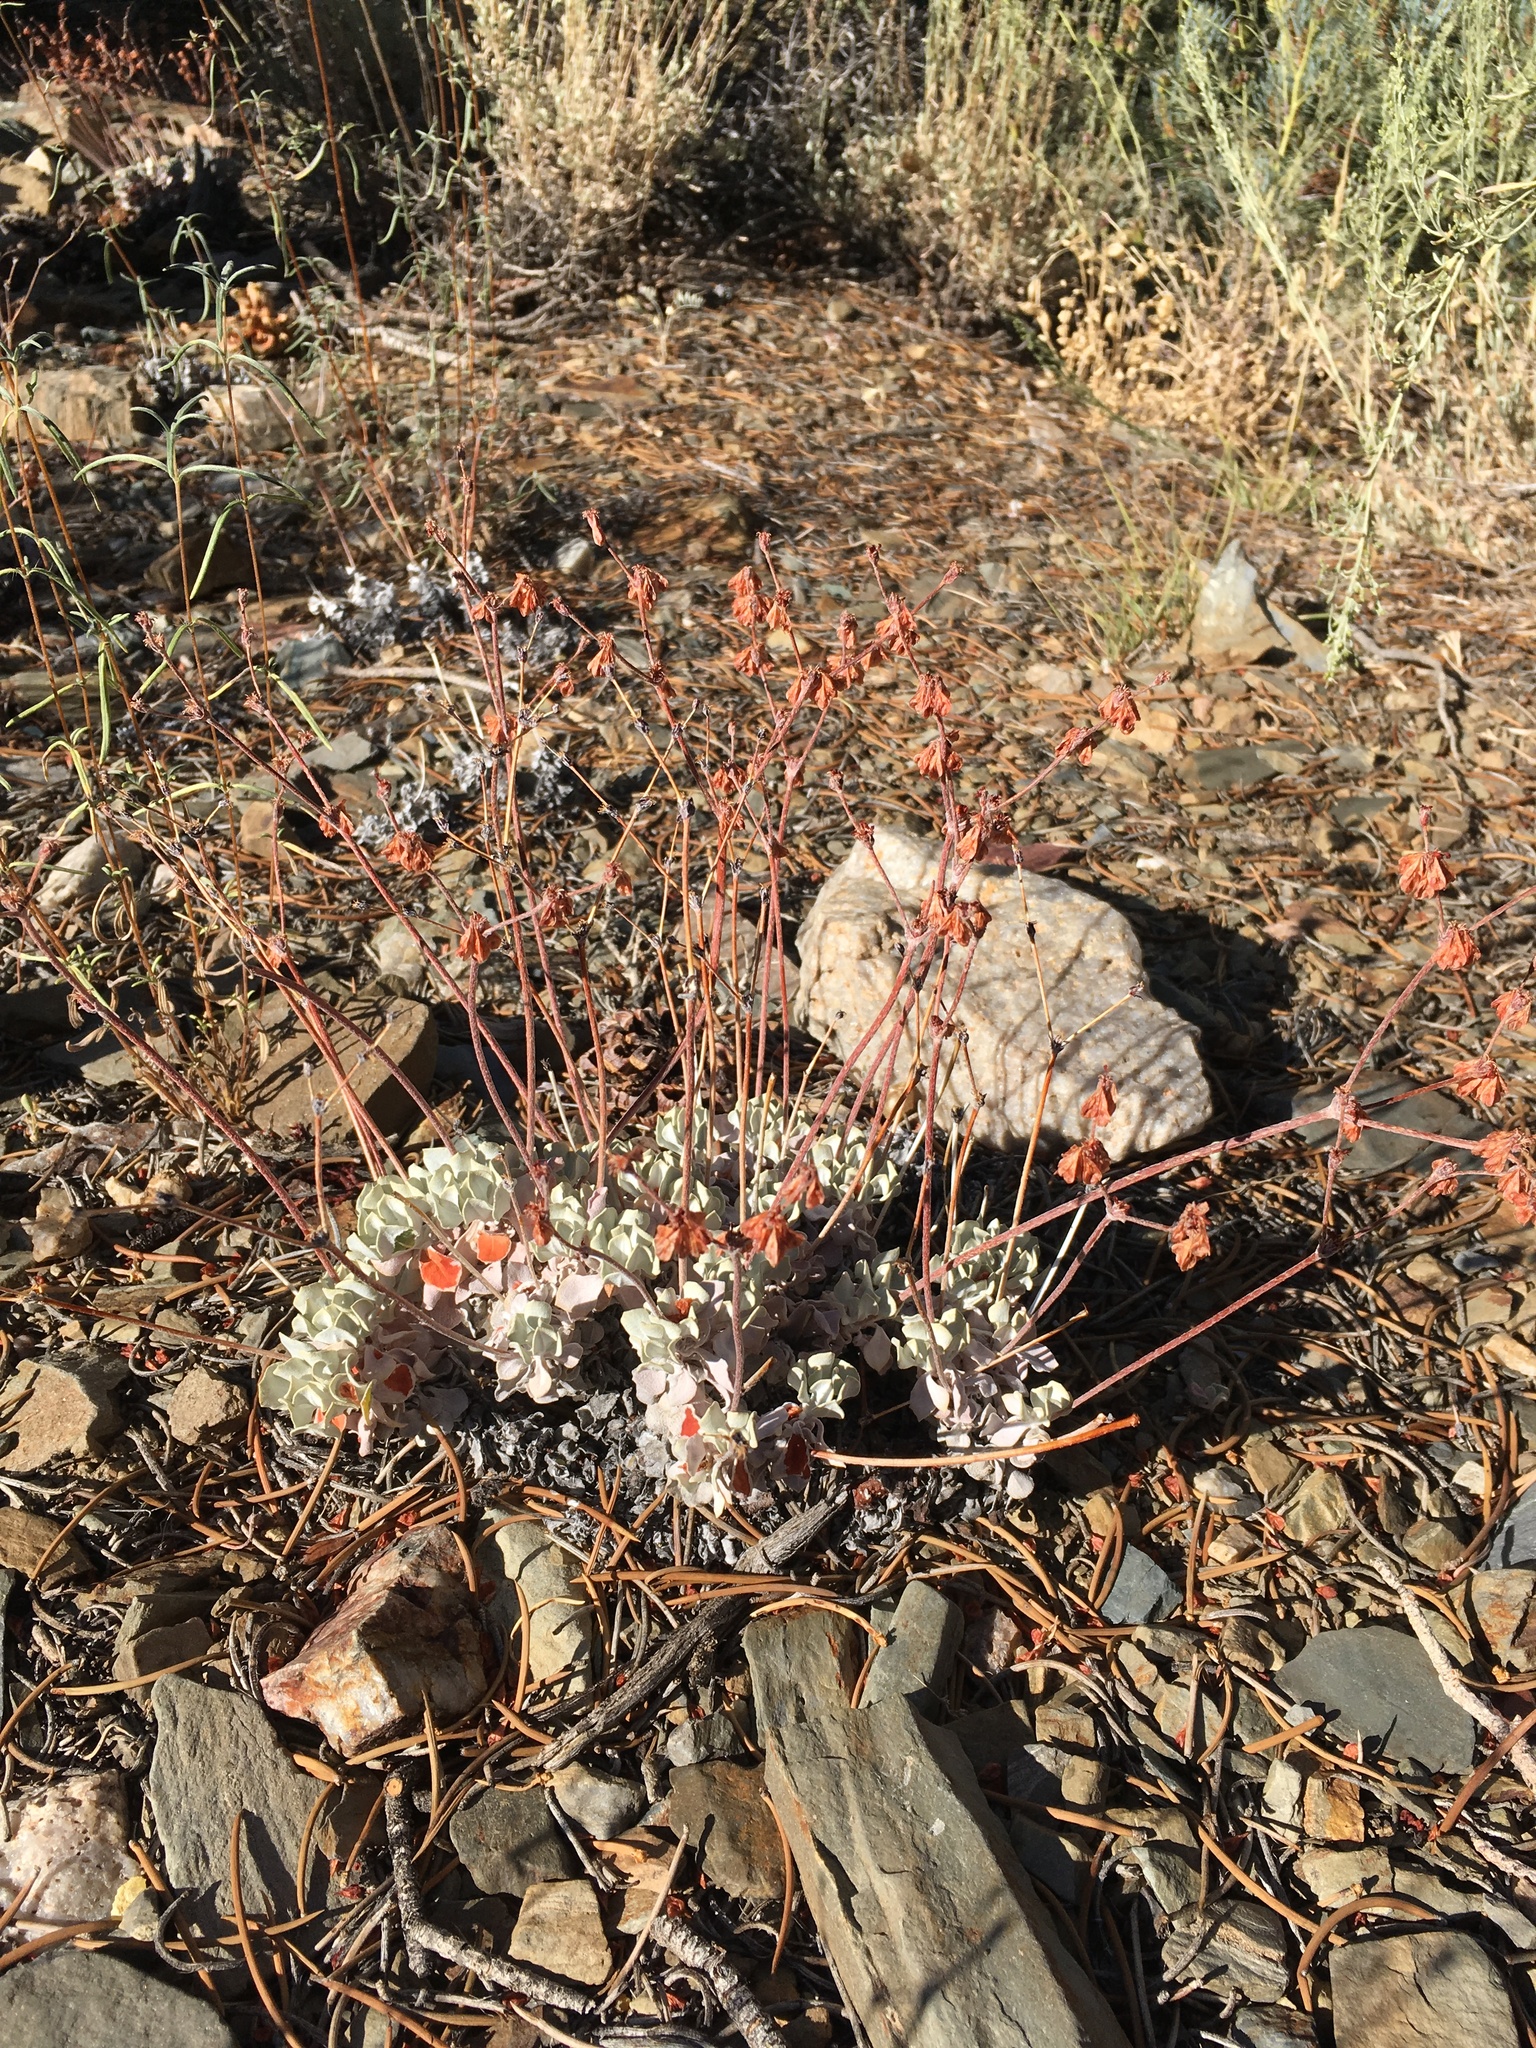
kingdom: Plantae
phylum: Tracheophyta
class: Magnoliopsida
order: Caryophyllales
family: Polygonaceae
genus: Eriogonum
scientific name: Eriogonum saxatile
